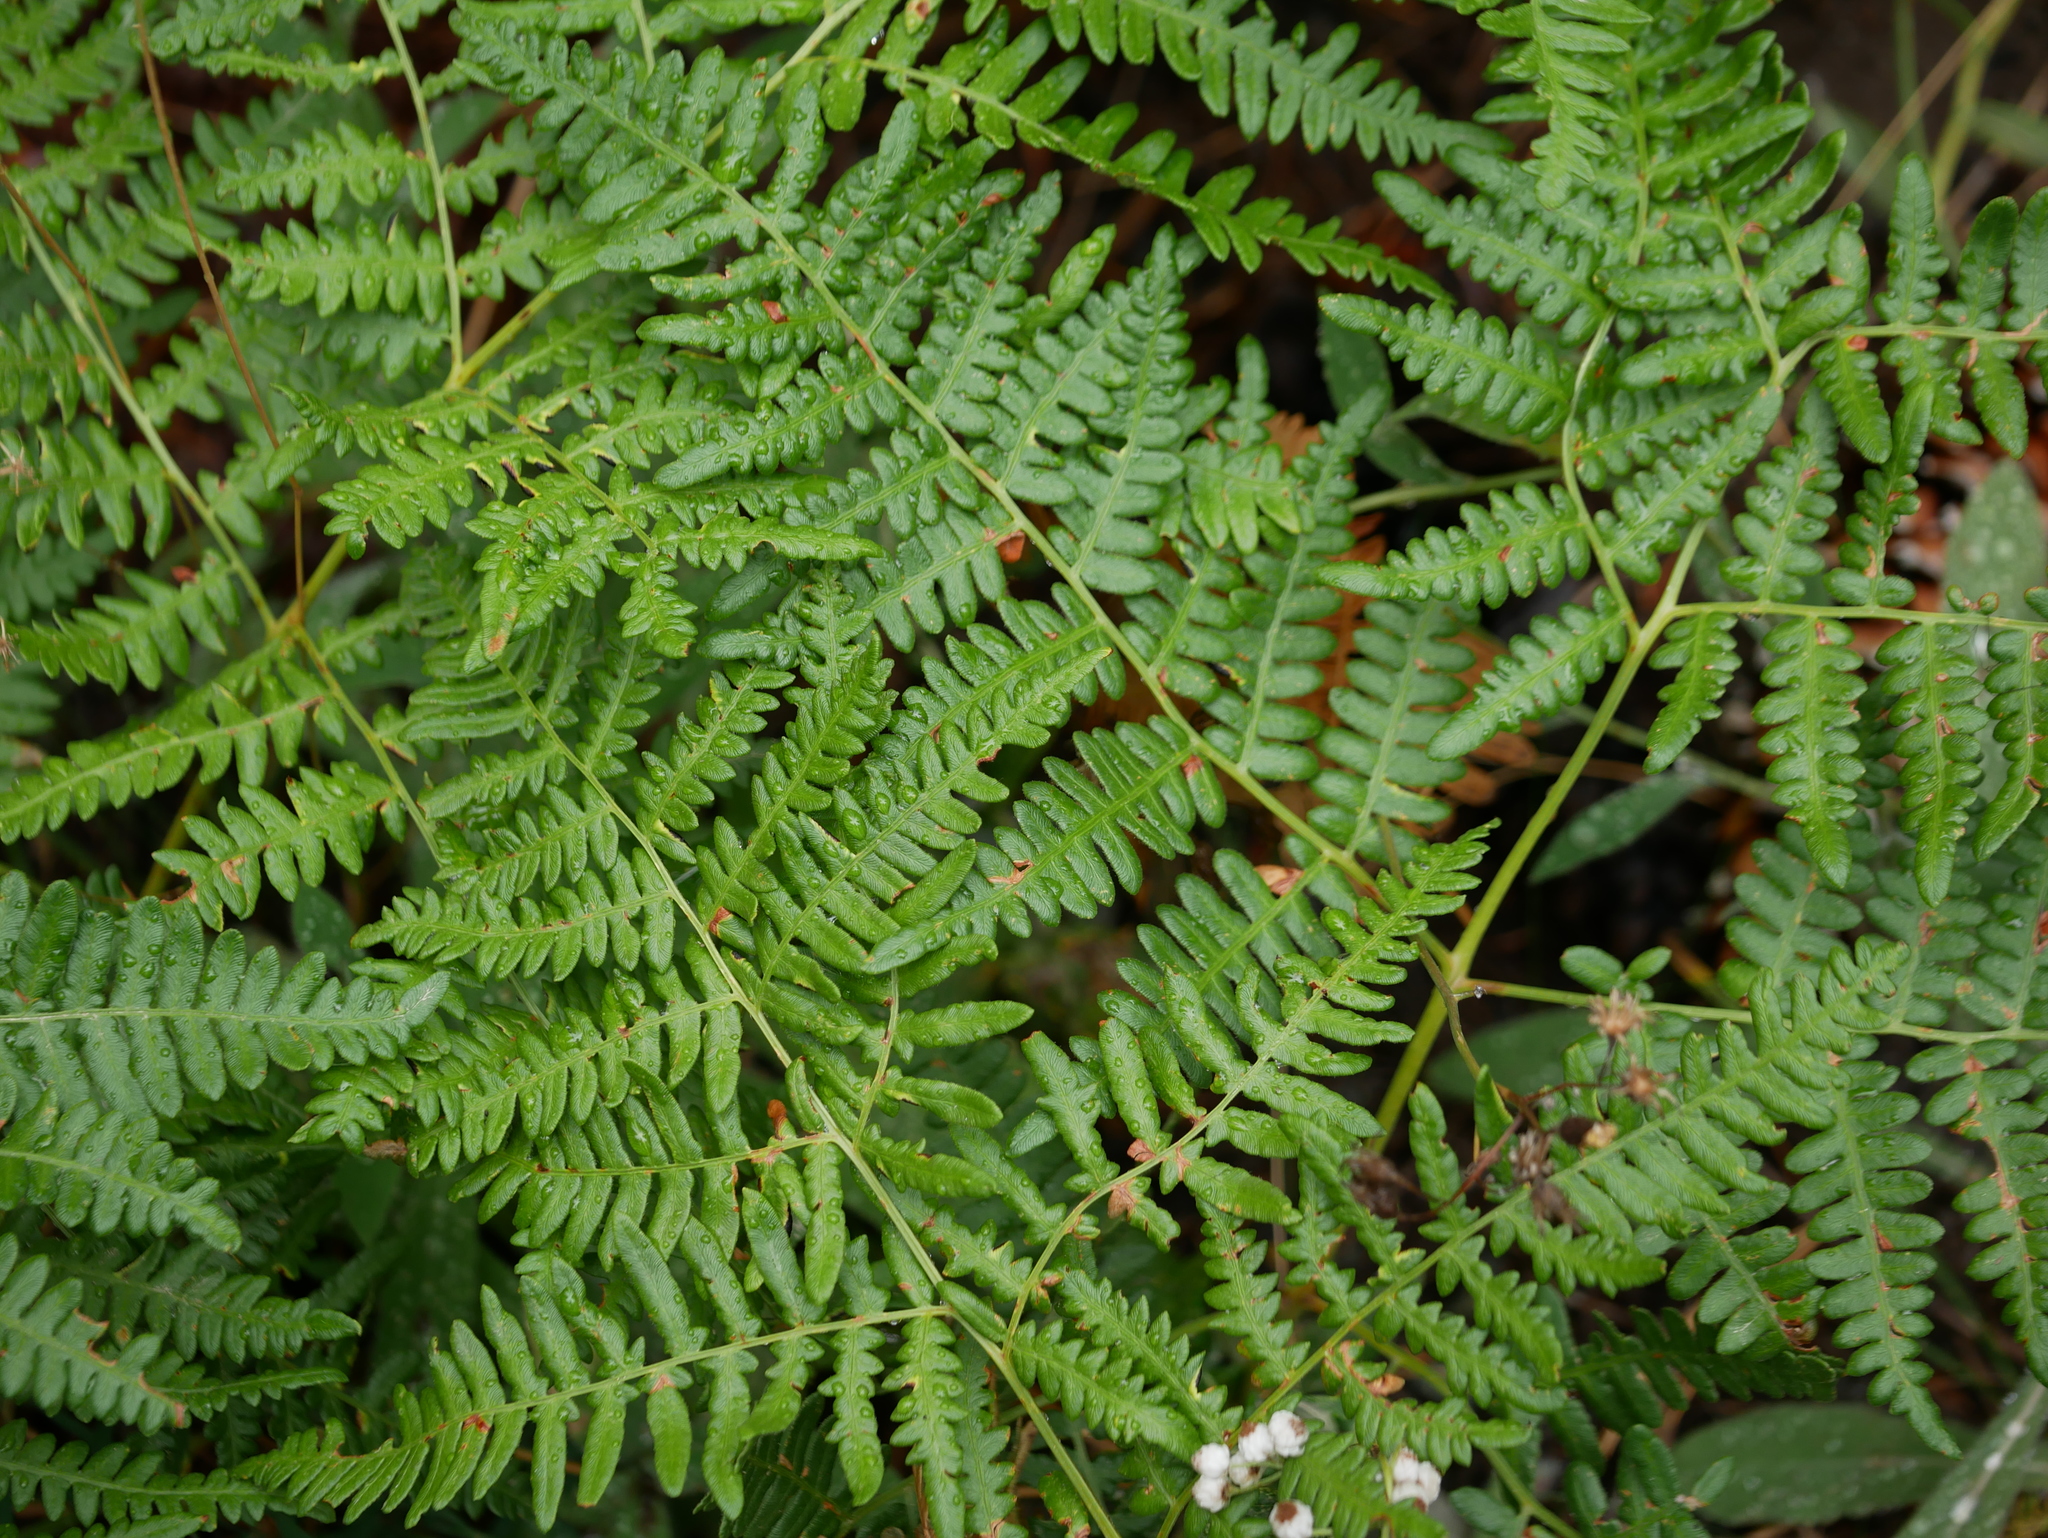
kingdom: Plantae
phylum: Tracheophyta
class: Polypodiopsida
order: Polypodiales
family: Dennstaedtiaceae
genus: Pteridium
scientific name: Pteridium aquilinum
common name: Bracken
